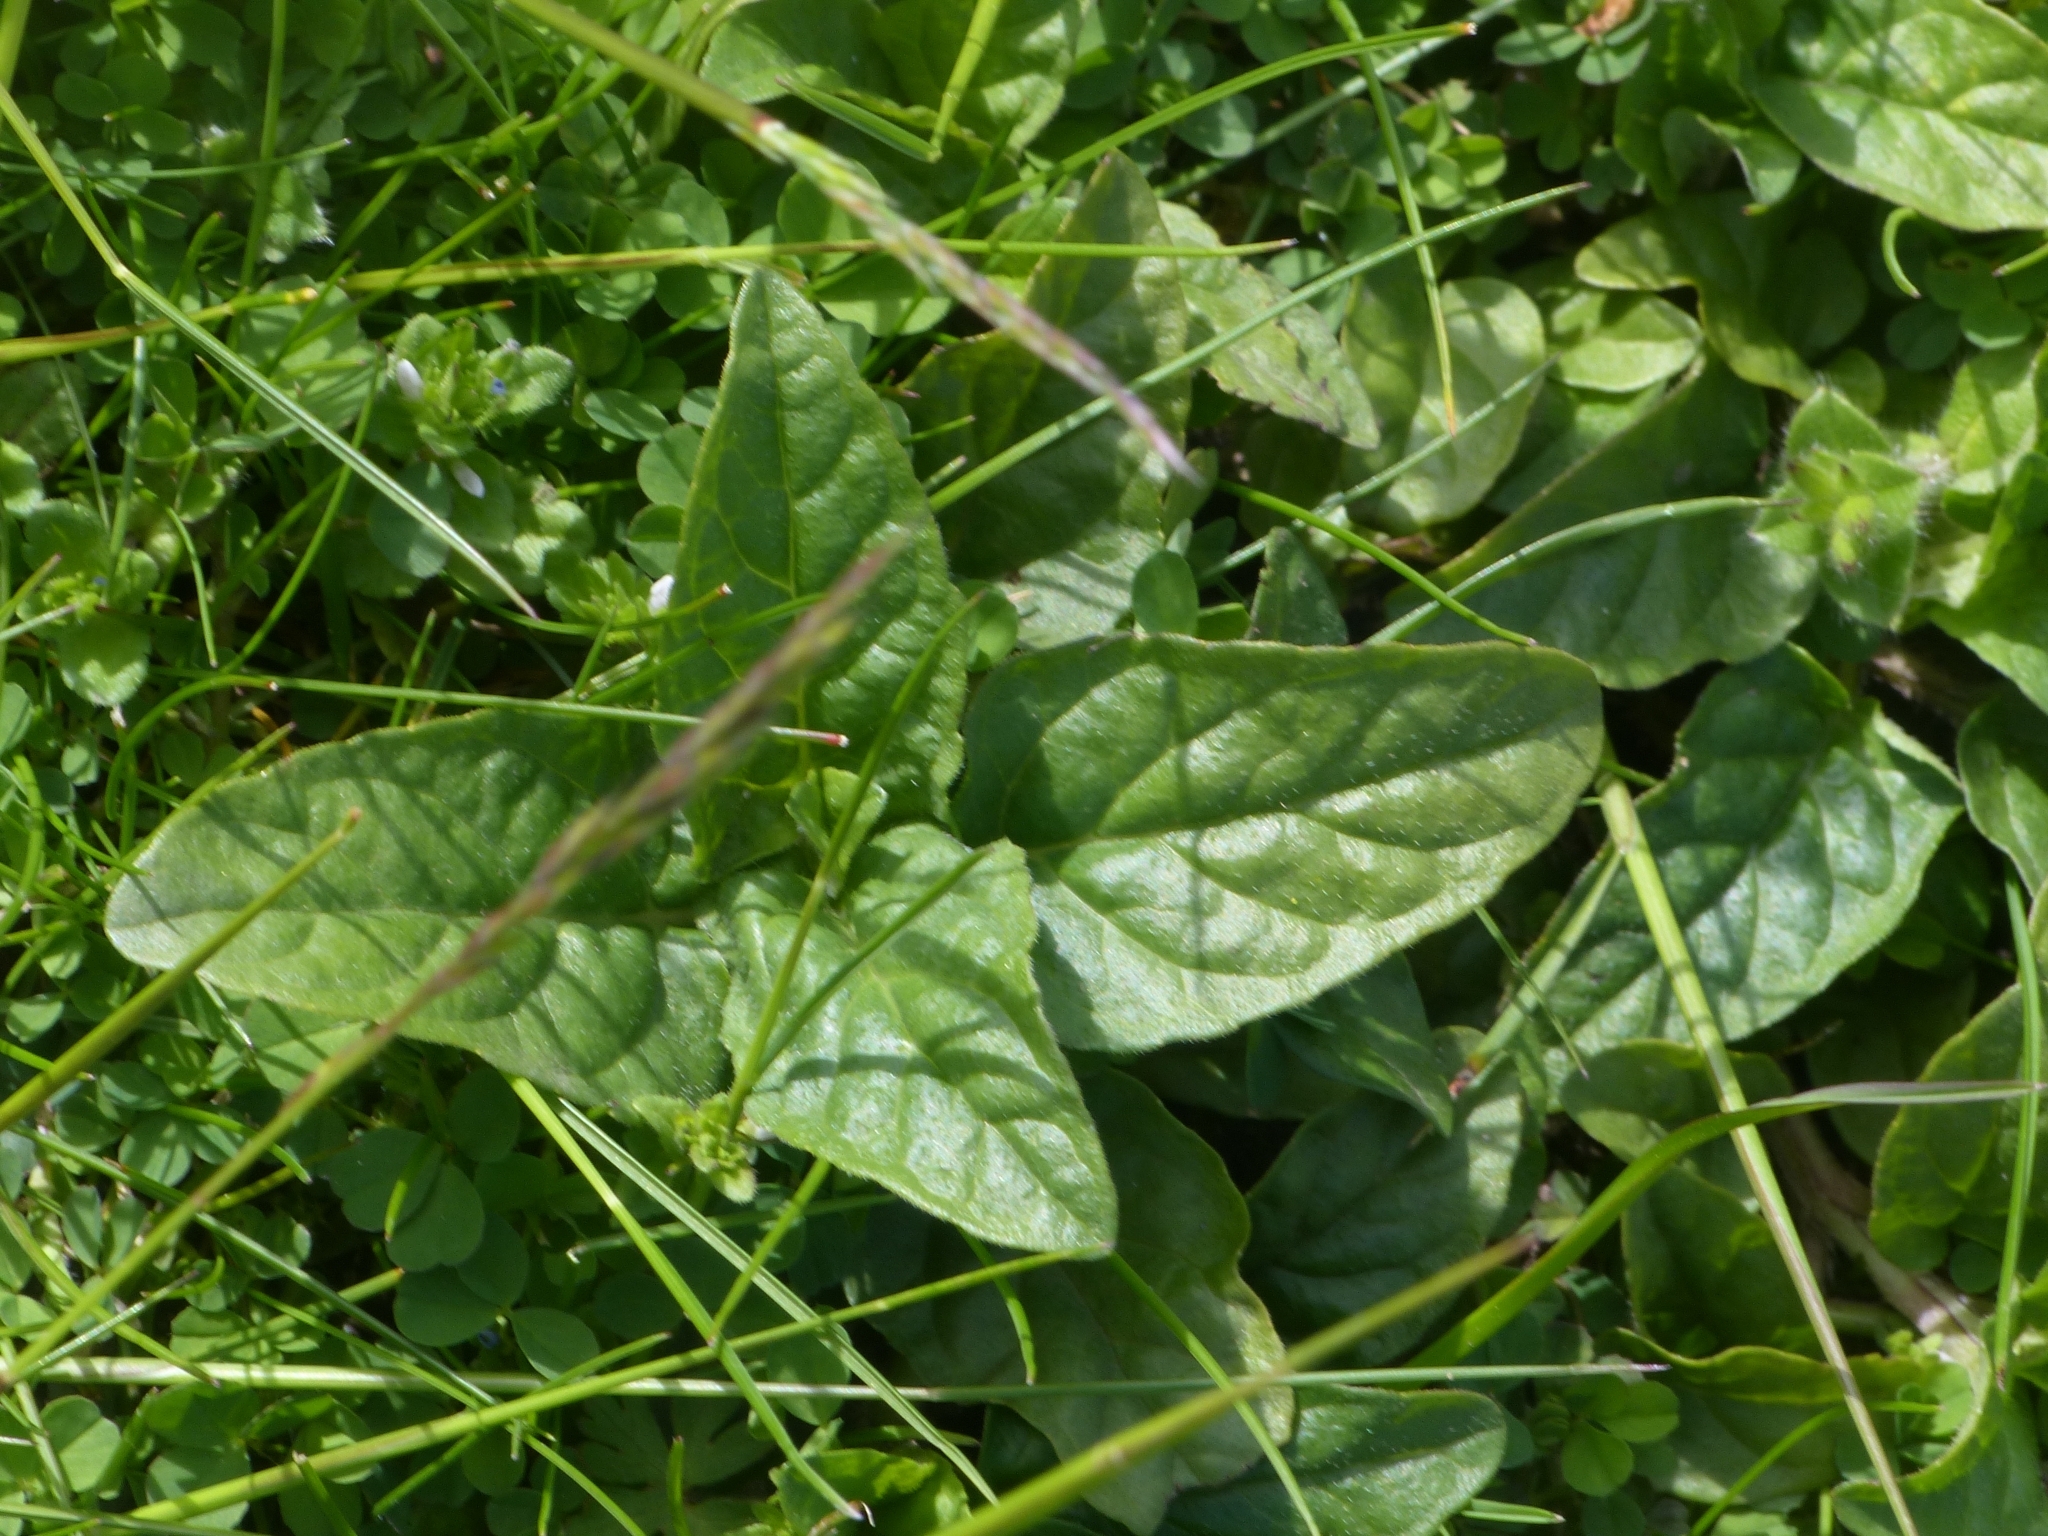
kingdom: Plantae
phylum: Tracheophyta
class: Magnoliopsida
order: Lamiales
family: Lamiaceae
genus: Prunella
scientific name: Prunella vulgaris
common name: Heal-all
